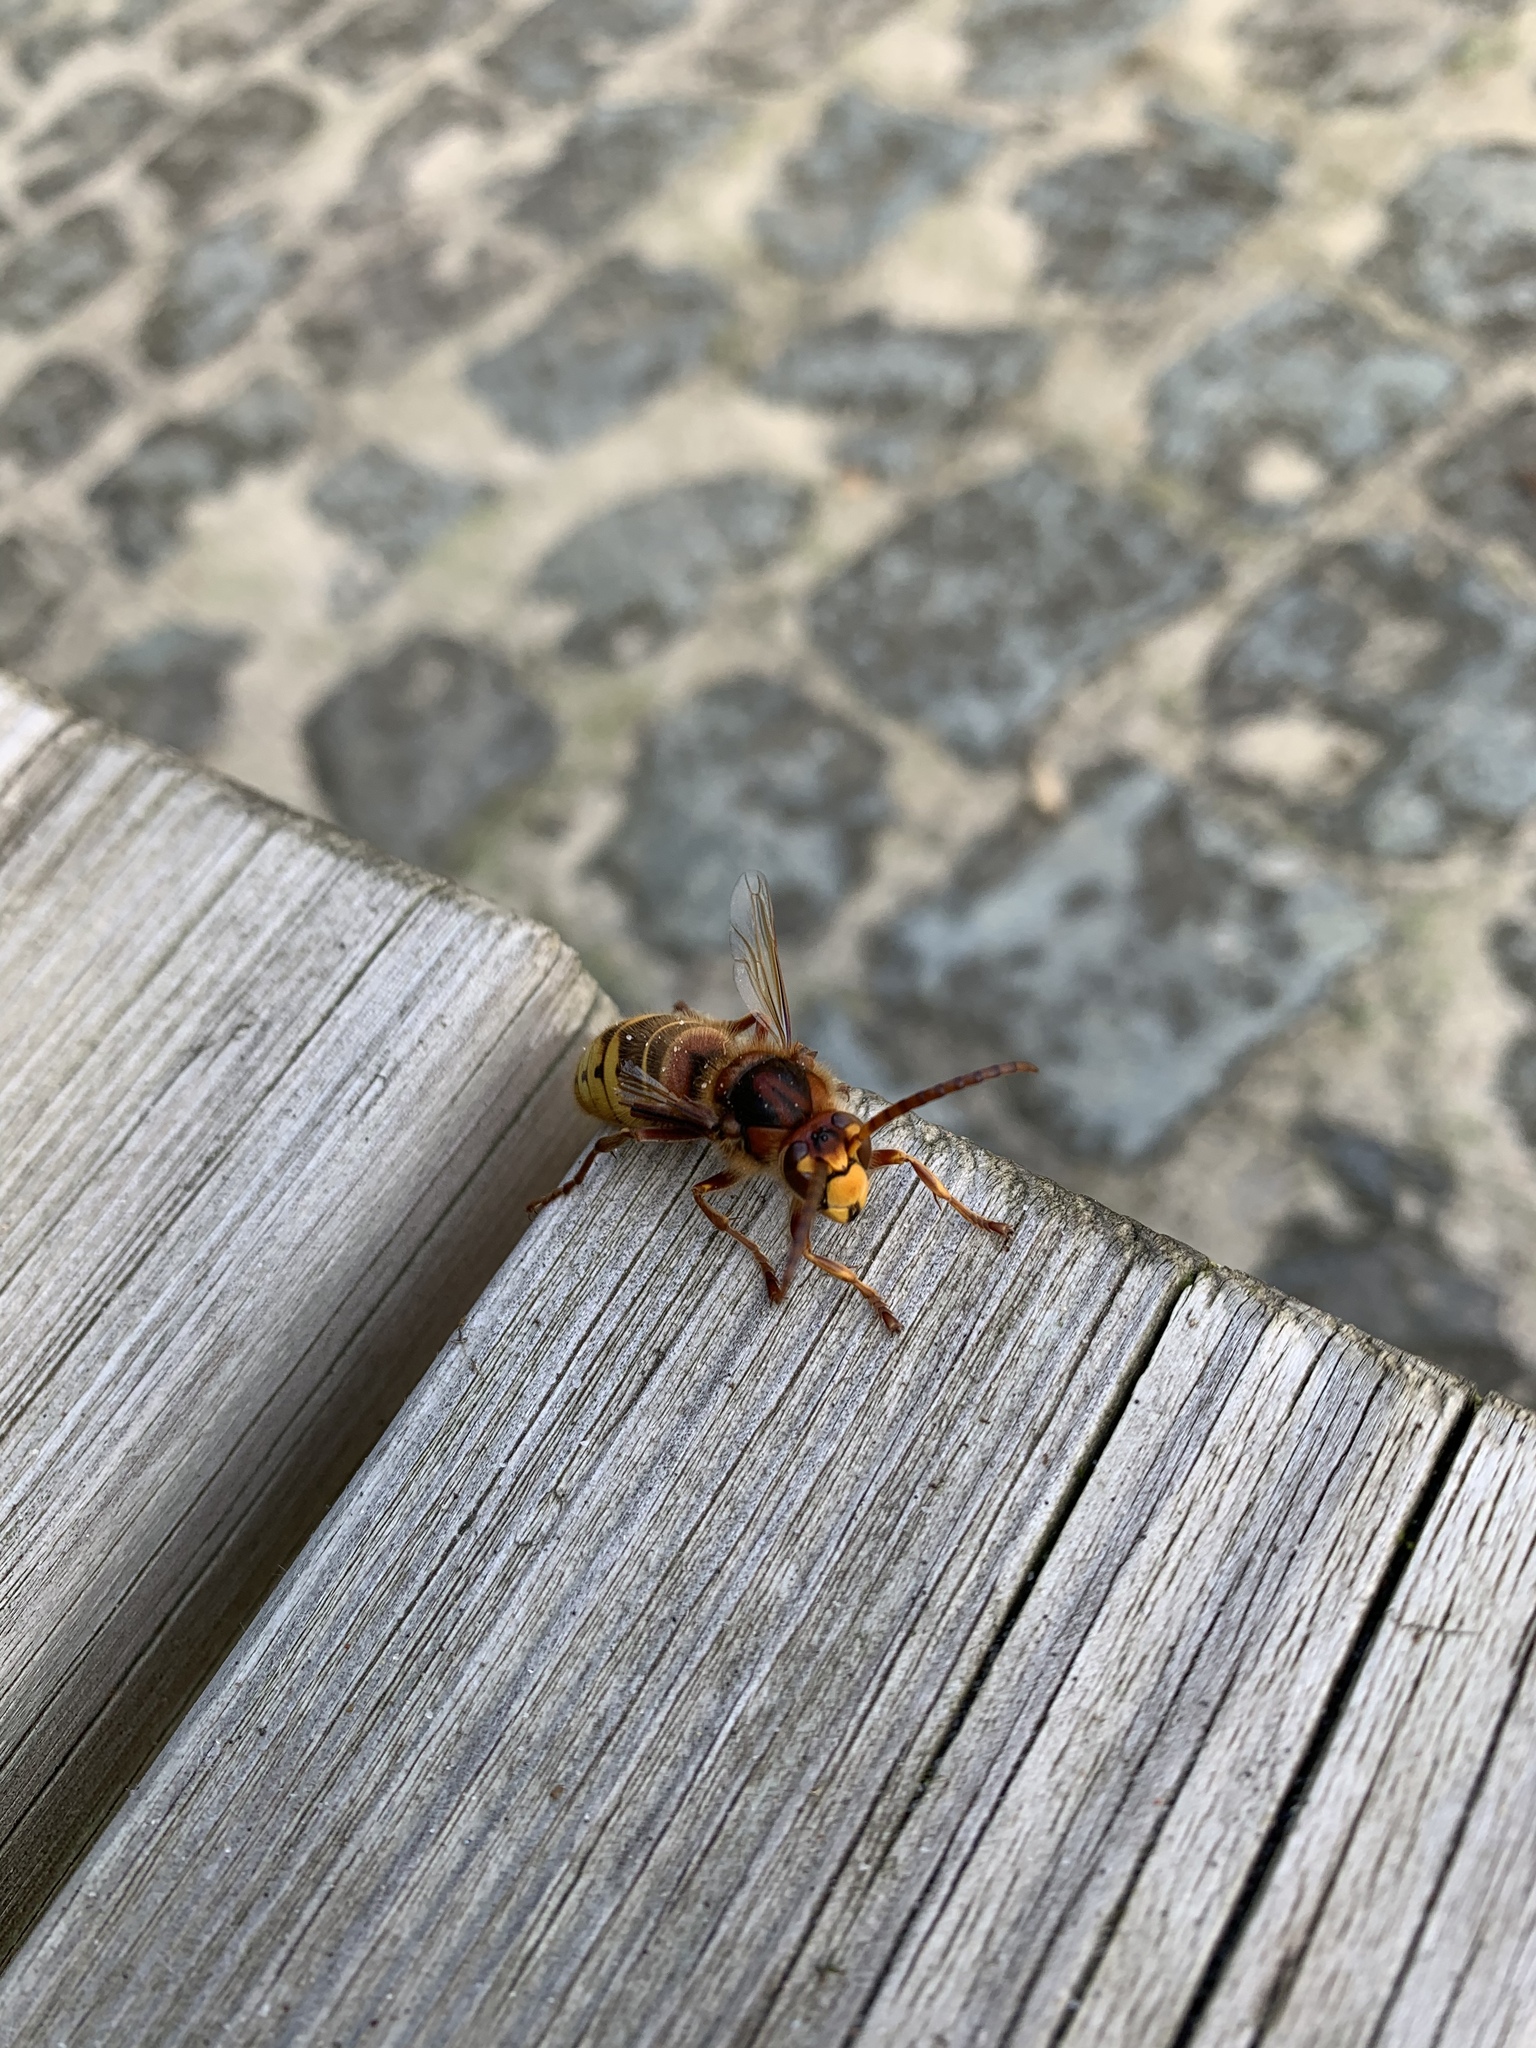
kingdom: Animalia
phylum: Arthropoda
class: Insecta
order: Hymenoptera
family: Vespidae
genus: Vespa
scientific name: Vespa crabro
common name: Hornet
